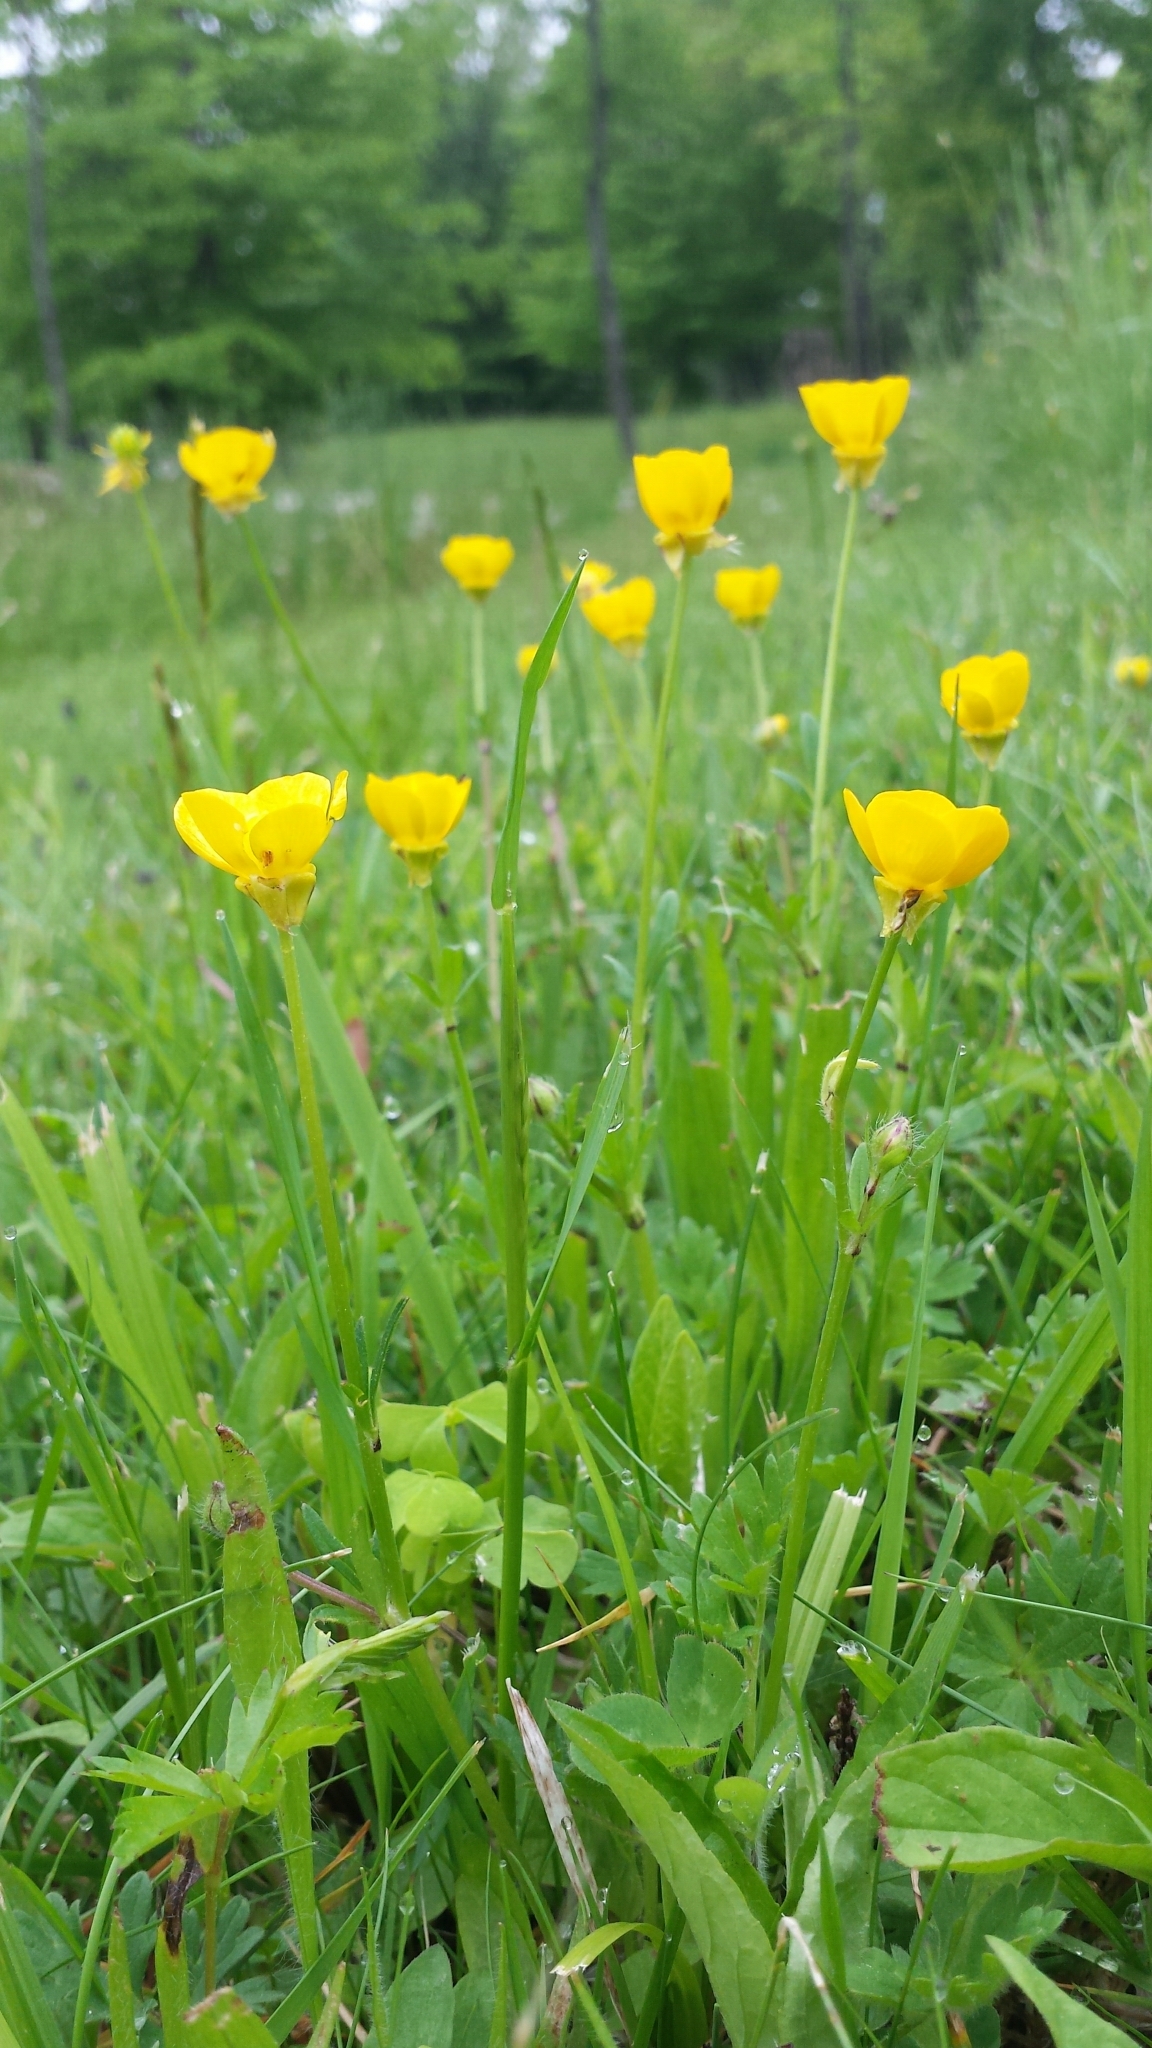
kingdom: Plantae
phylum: Tracheophyta
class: Magnoliopsida
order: Ranunculales
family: Ranunculaceae
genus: Ranunculus
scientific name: Ranunculus bulbosus
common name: Bulbous buttercup
